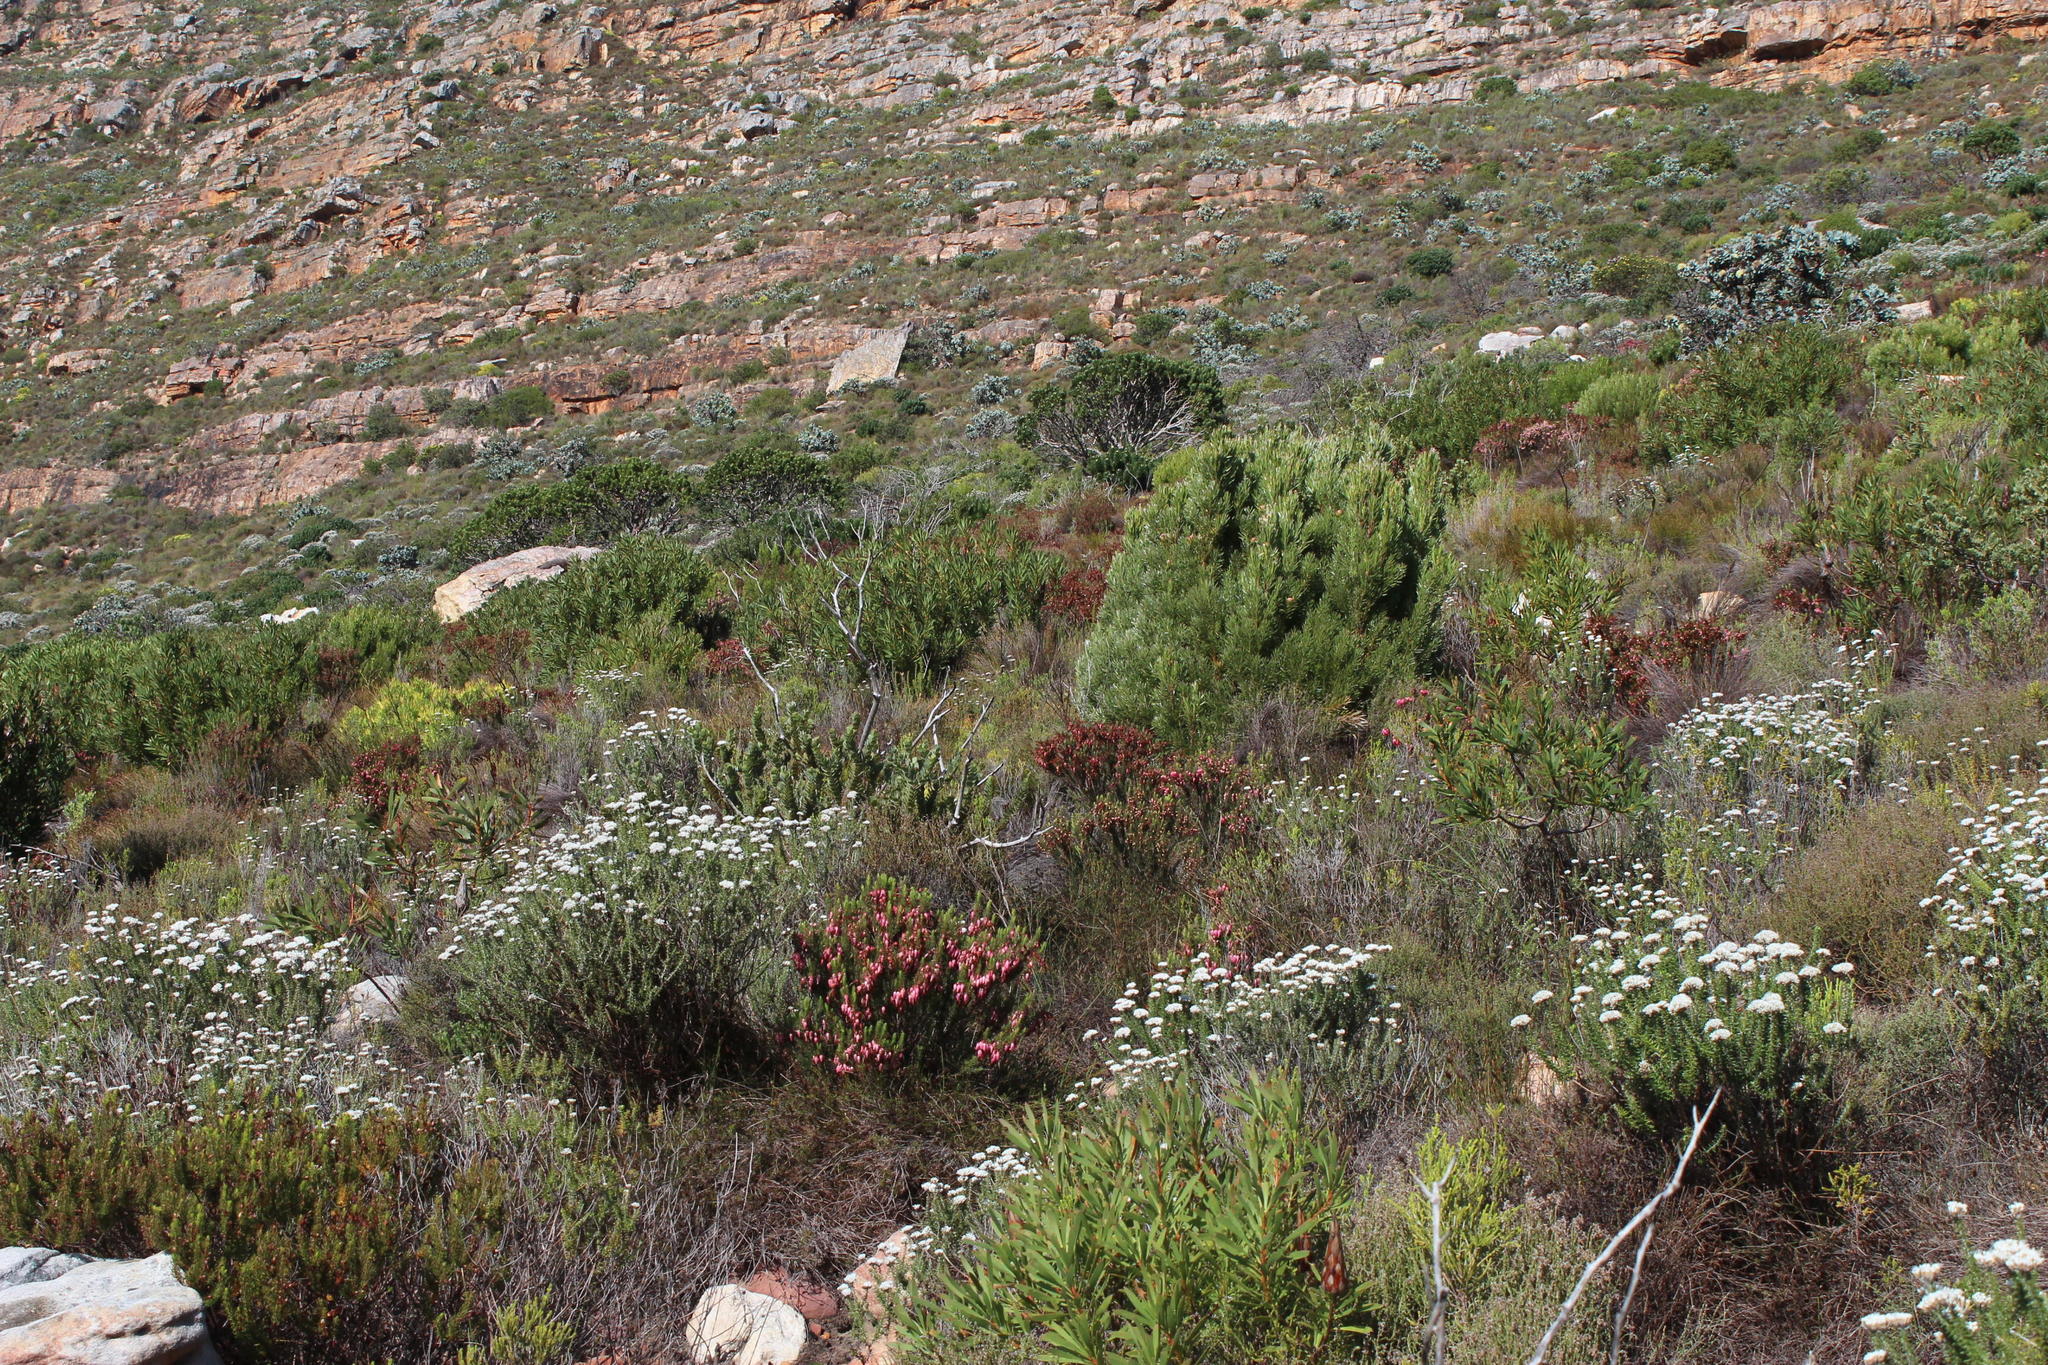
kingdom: Plantae
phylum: Tracheophyta
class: Magnoliopsida
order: Ericales
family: Ericaceae
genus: Erica
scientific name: Erica plukenetii
